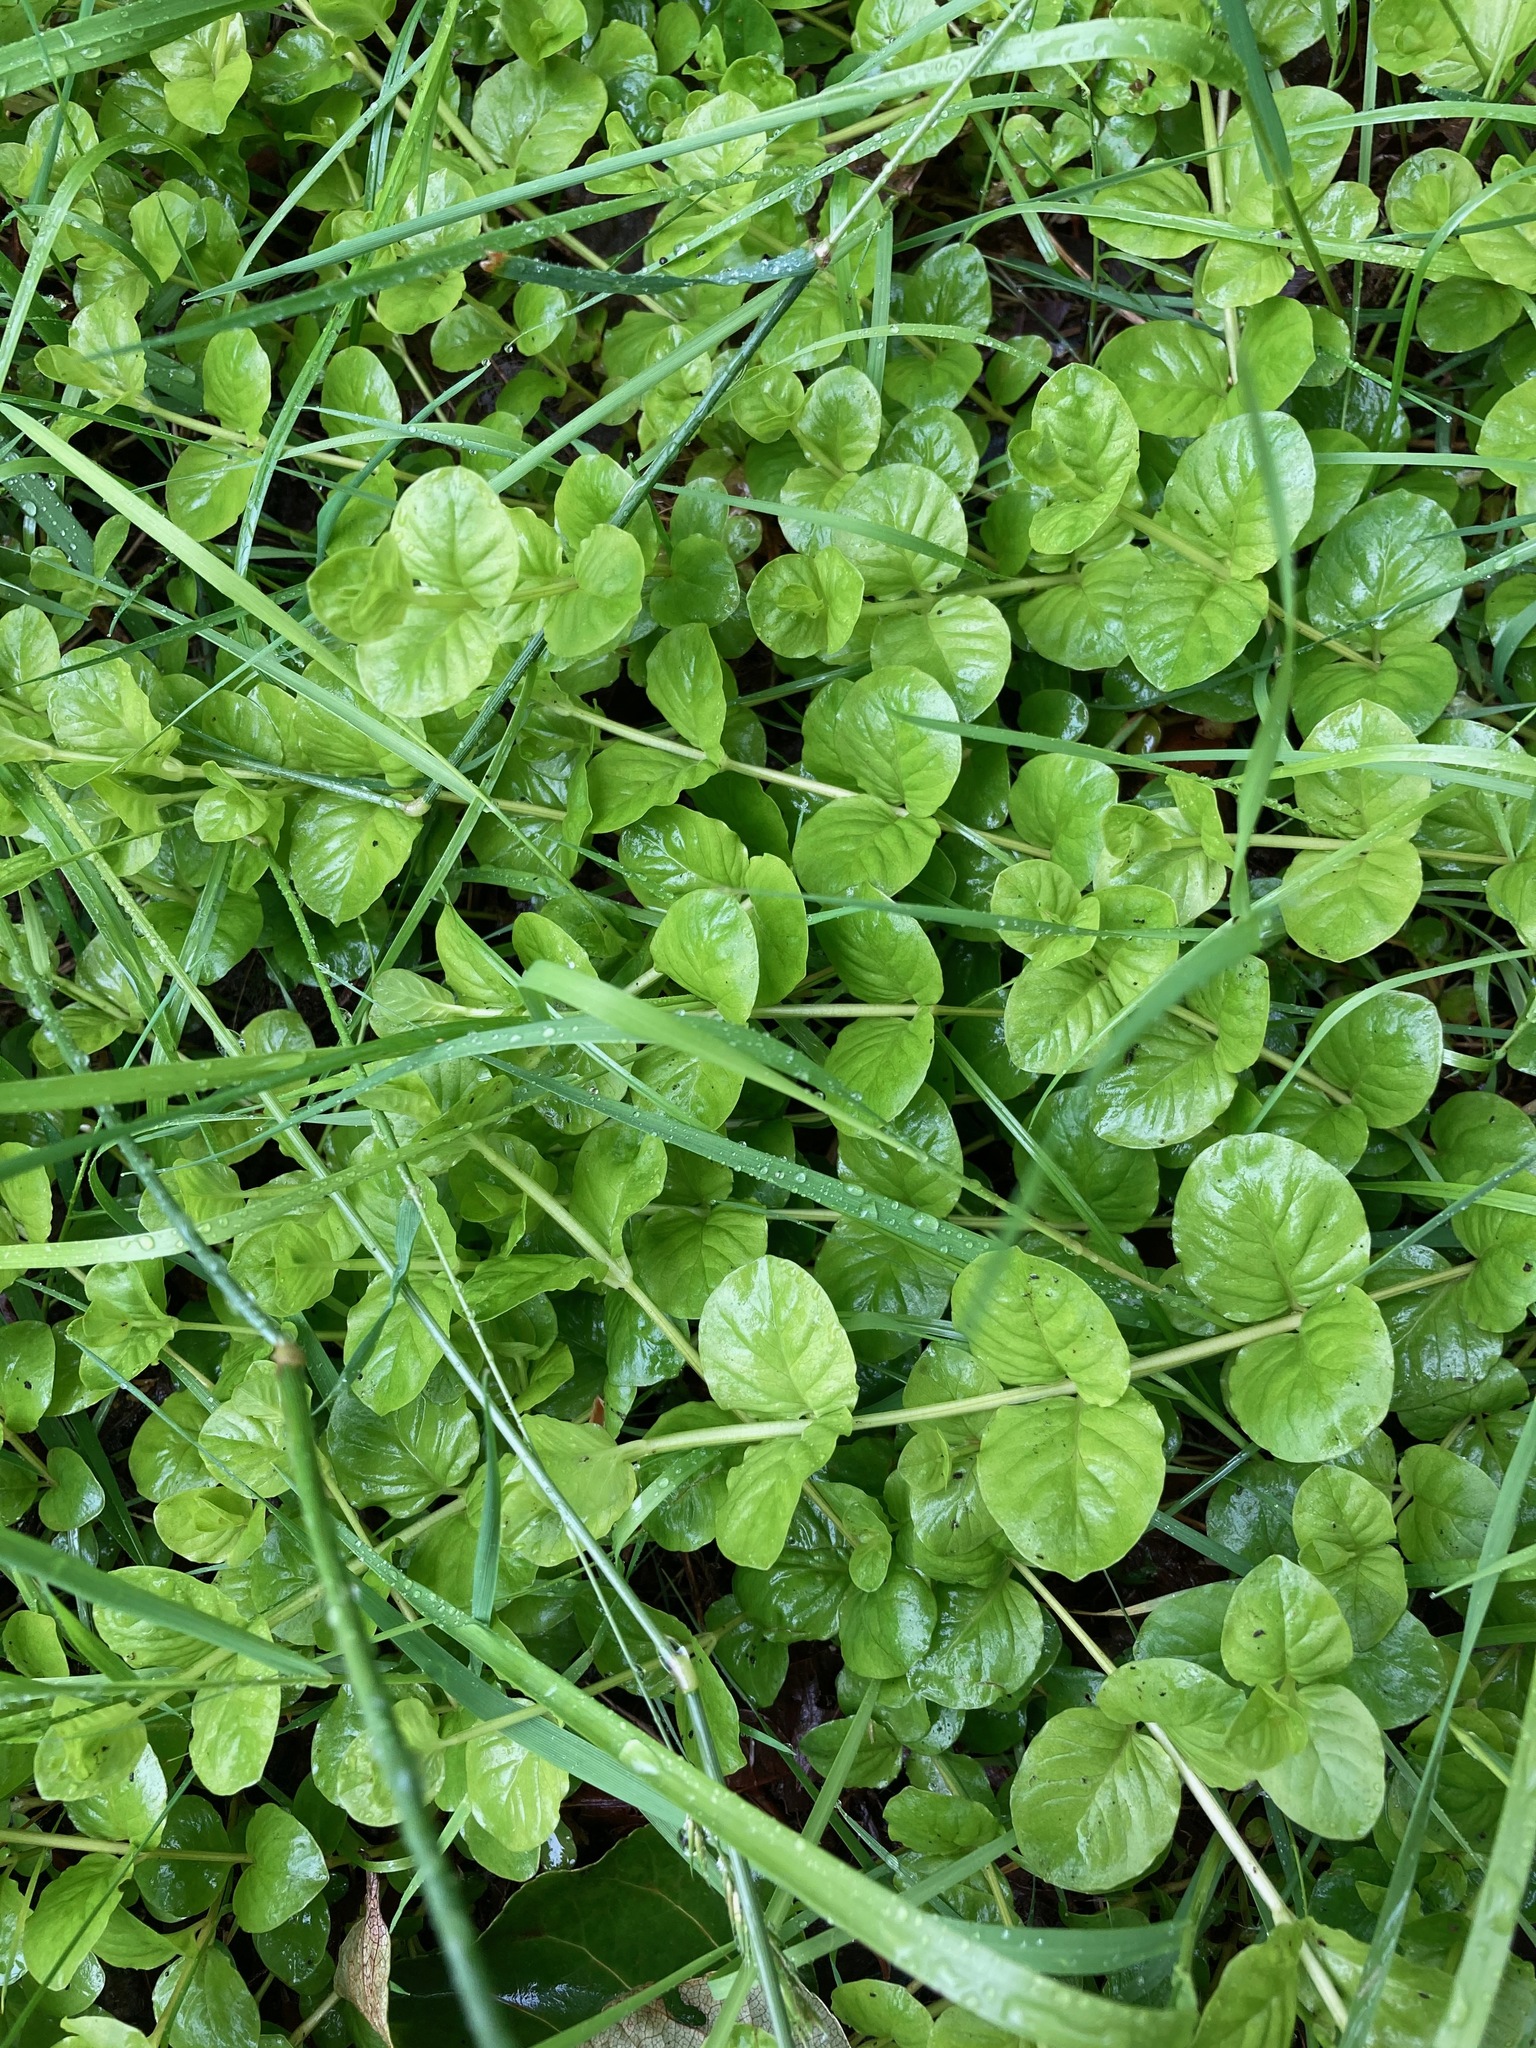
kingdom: Plantae
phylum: Tracheophyta
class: Magnoliopsida
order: Ericales
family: Primulaceae
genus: Lysimachia
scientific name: Lysimachia nummularia
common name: Moneywort
